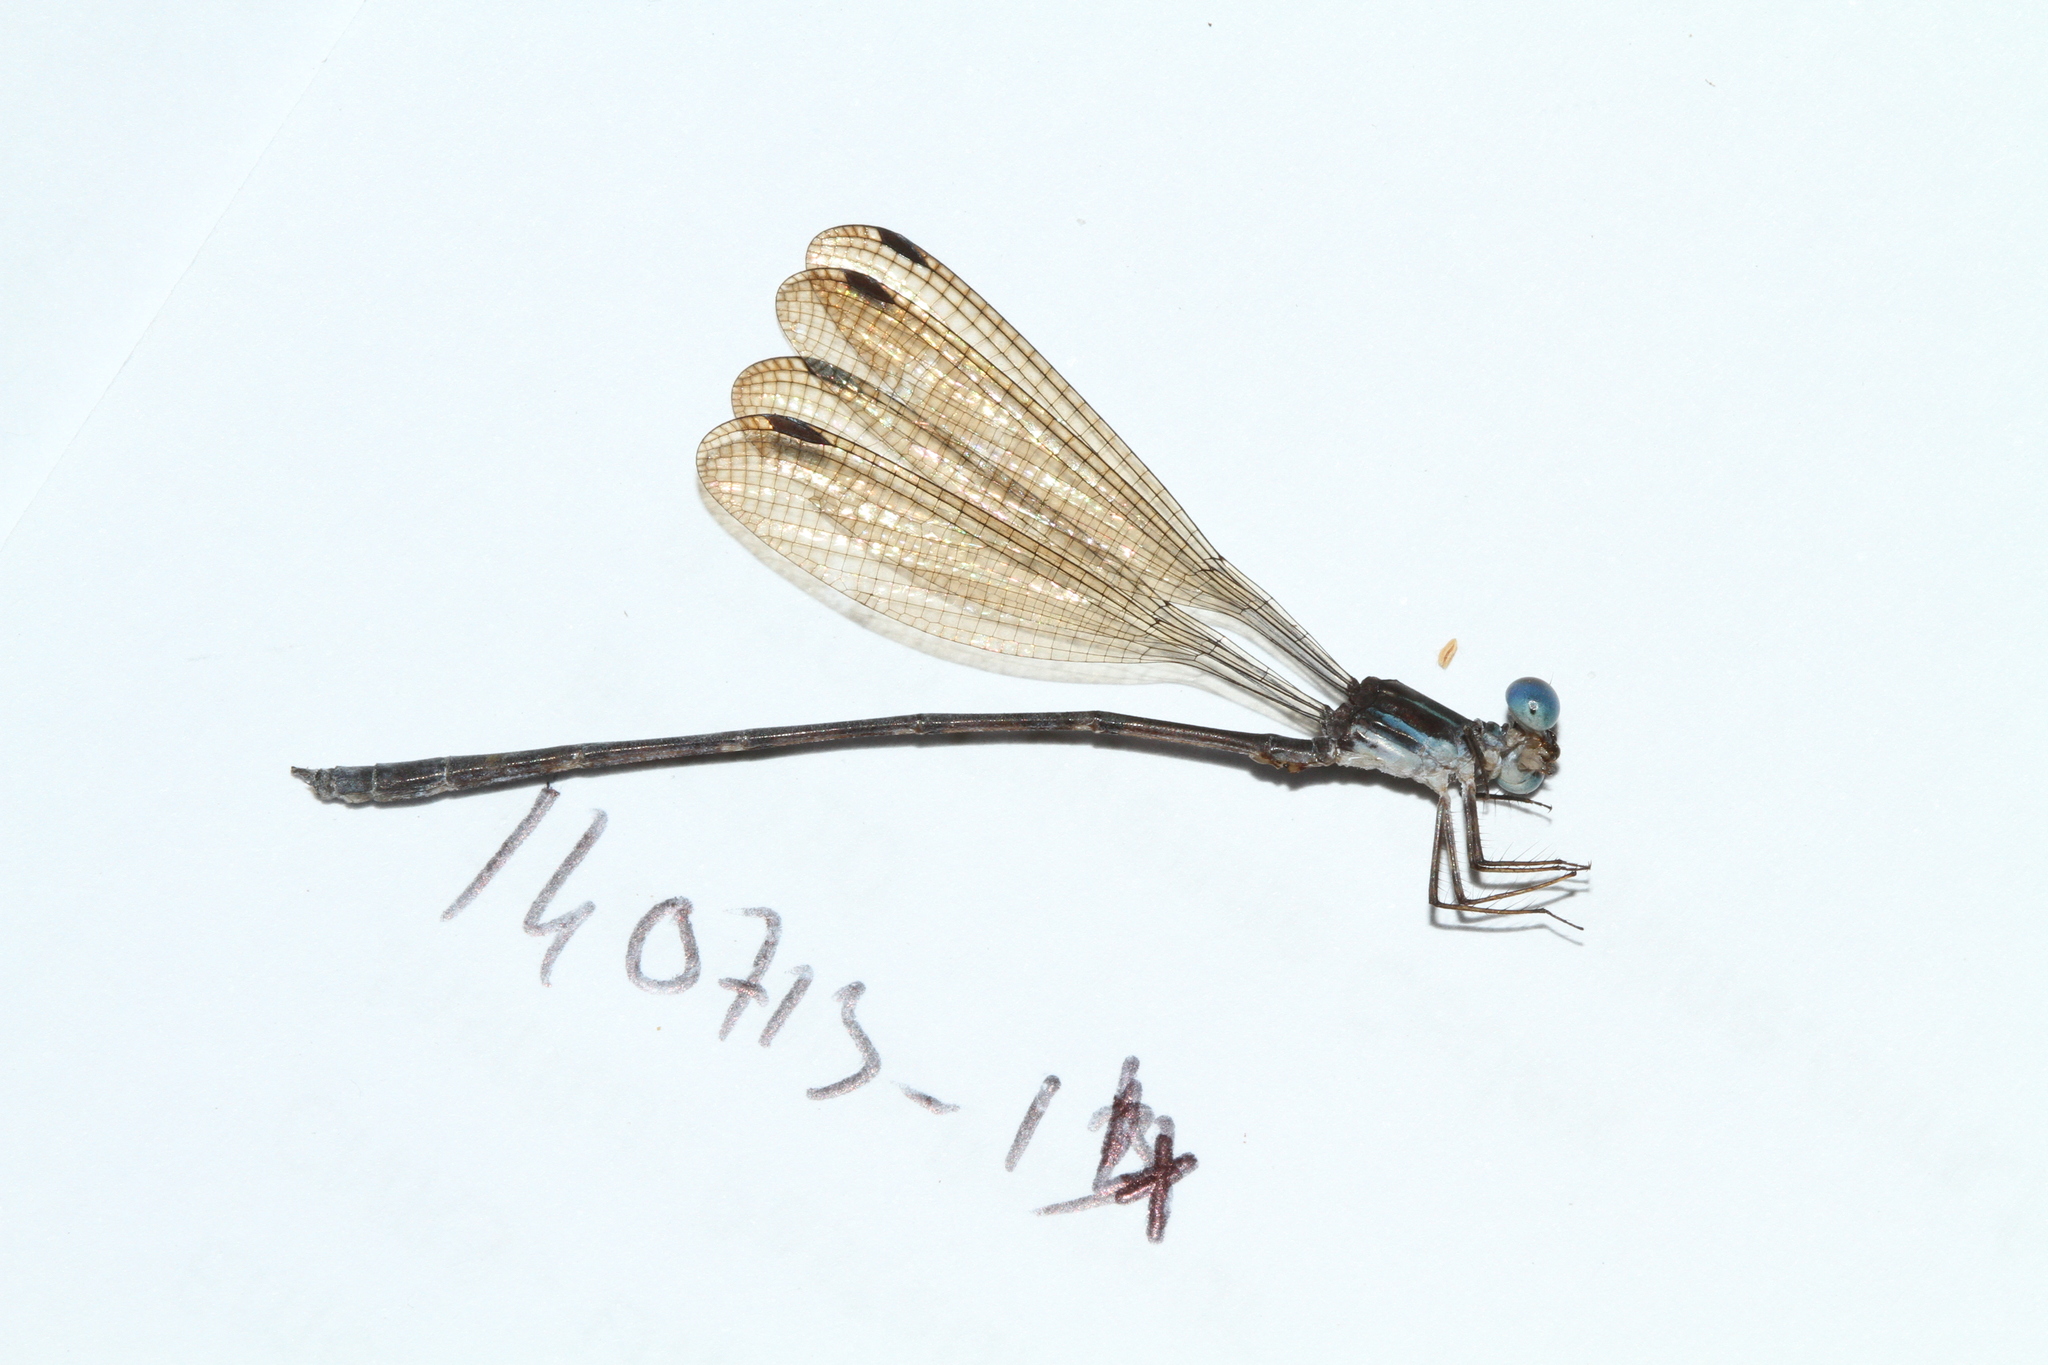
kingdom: Animalia
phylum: Arthropoda
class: Insecta
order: Odonata
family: Heteragrionidae
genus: Oxystigma
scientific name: Oxystigma petiolatum
